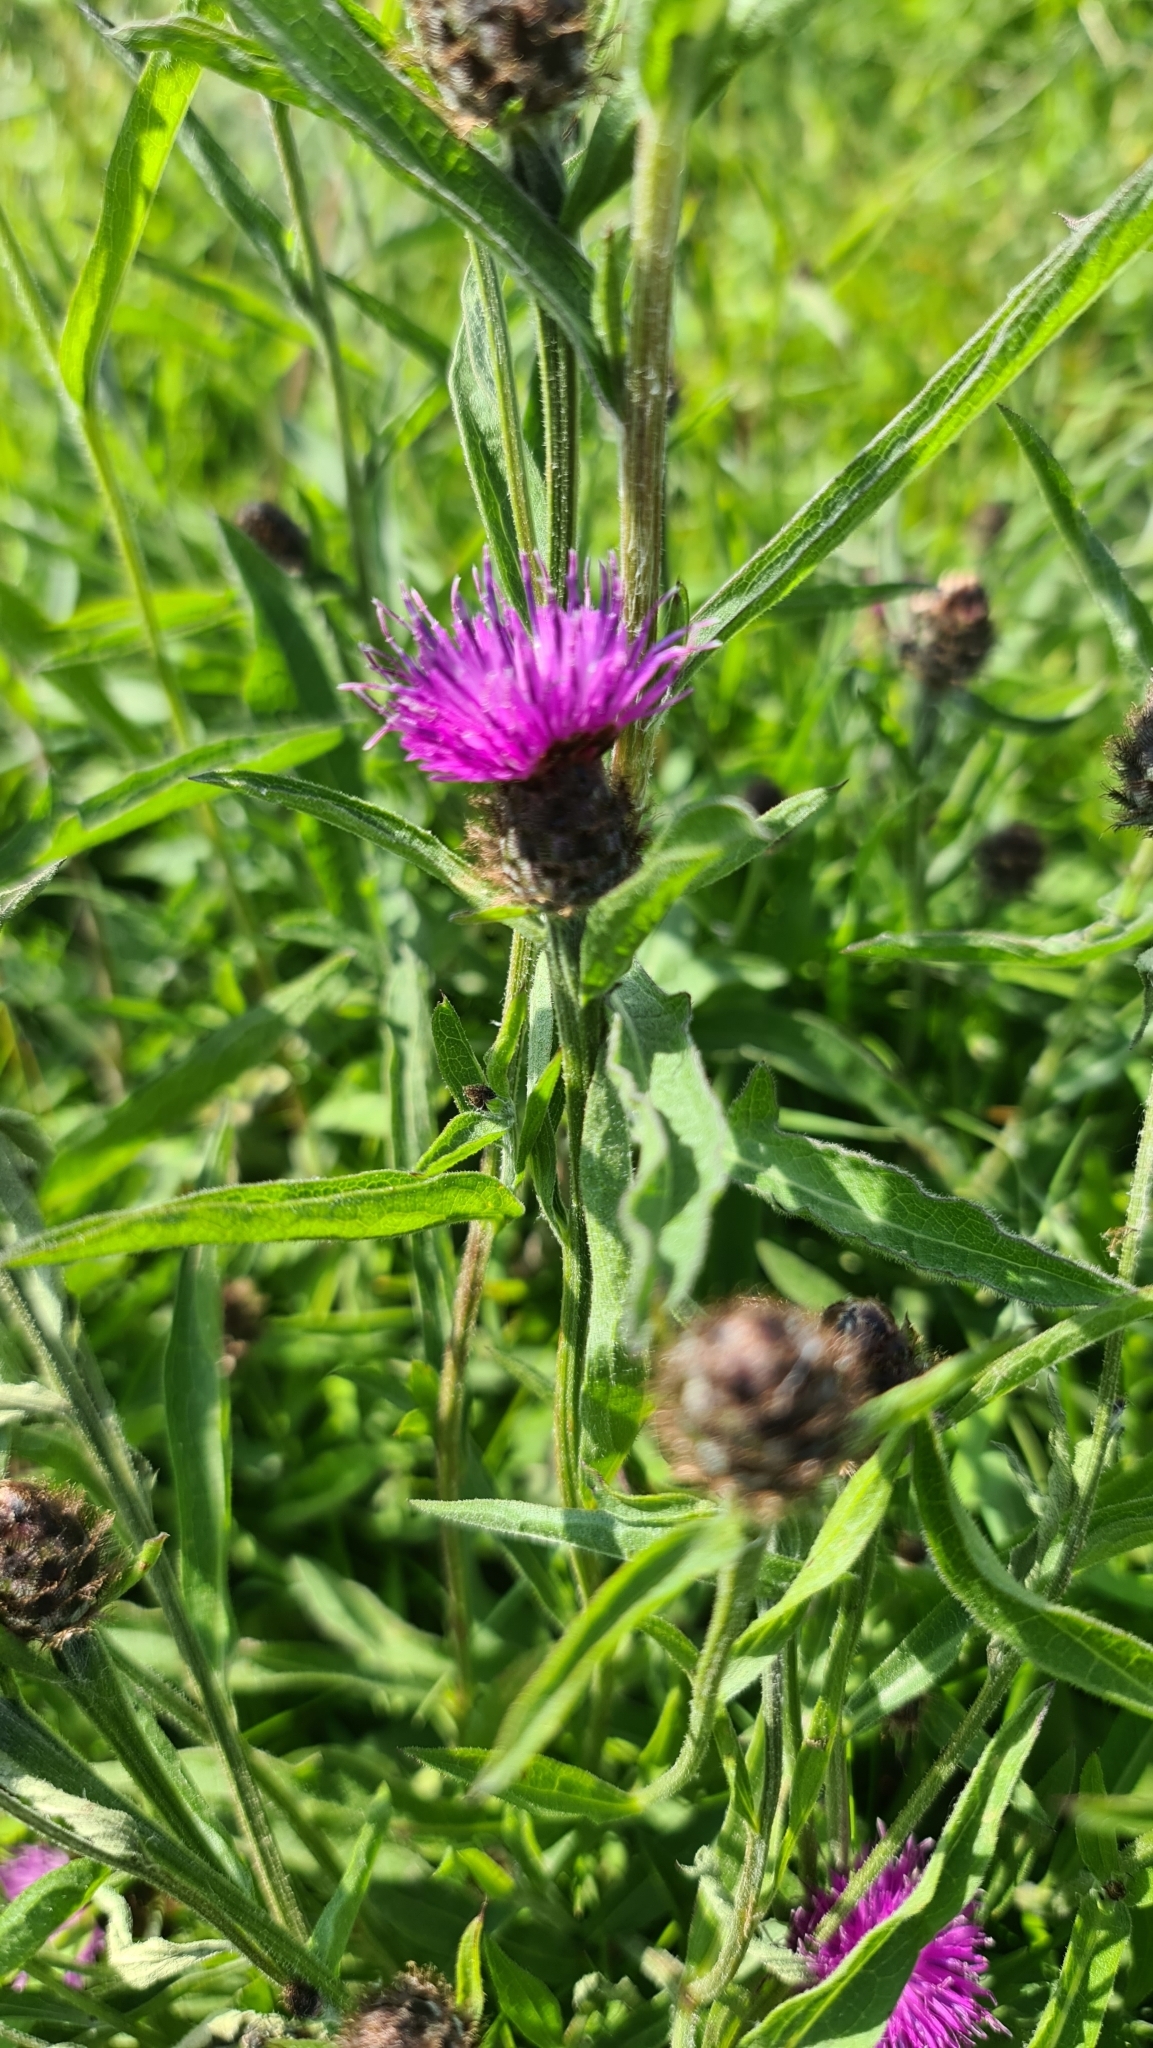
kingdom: Plantae
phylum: Tracheophyta
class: Magnoliopsida
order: Asterales
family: Asteraceae
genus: Centaurea
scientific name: Centaurea nigra
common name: Lesser knapweed
